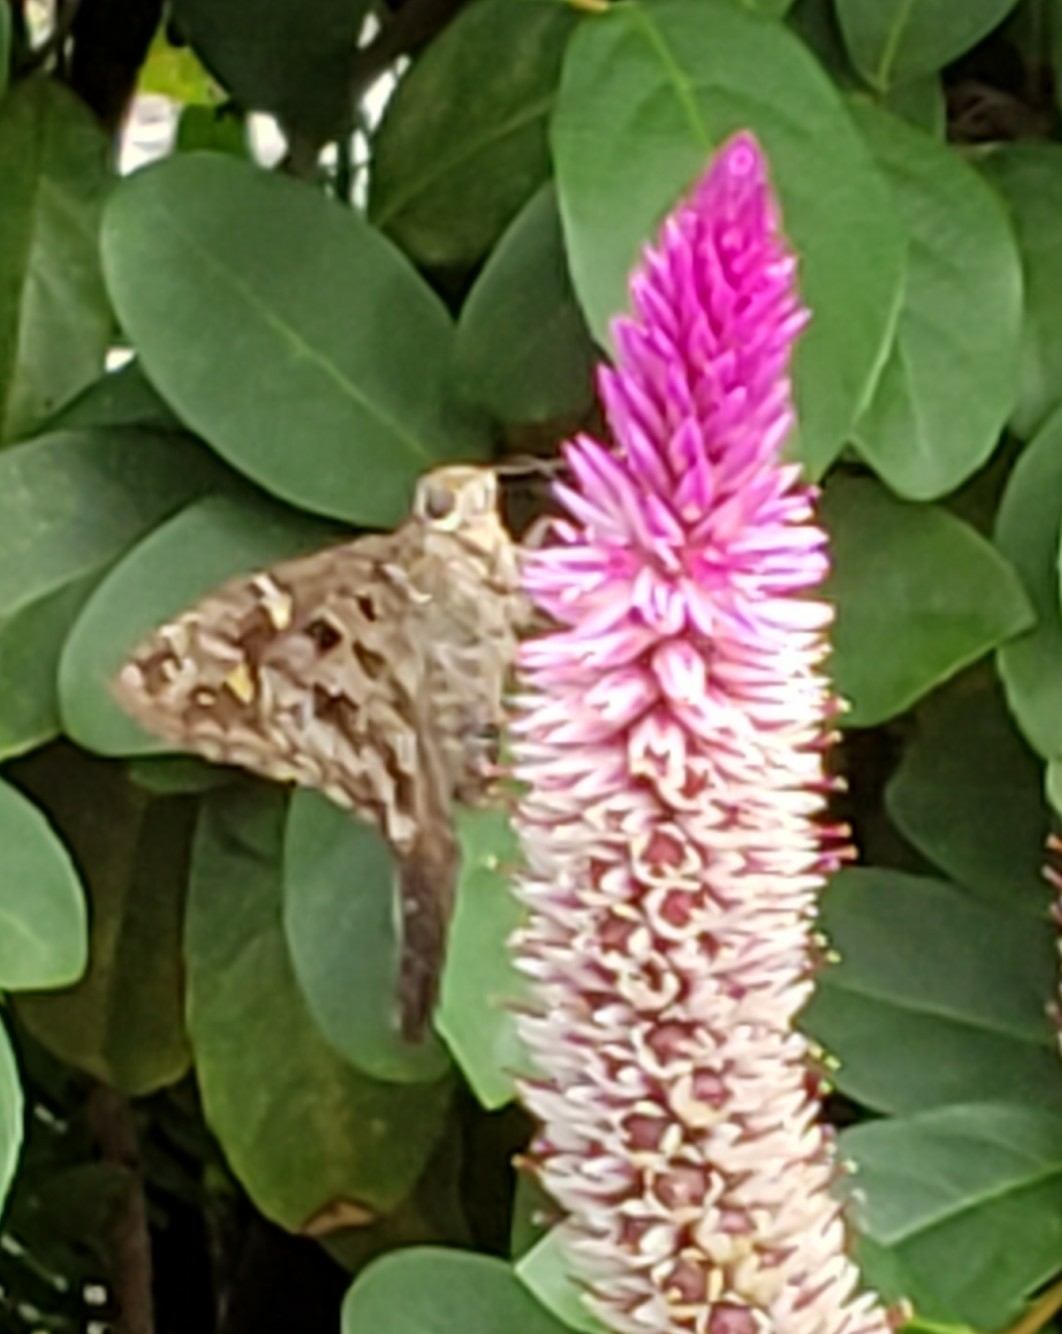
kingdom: Animalia
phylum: Arthropoda
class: Insecta
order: Lepidoptera
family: Hesperiidae
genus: Thorybes
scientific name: Thorybes
